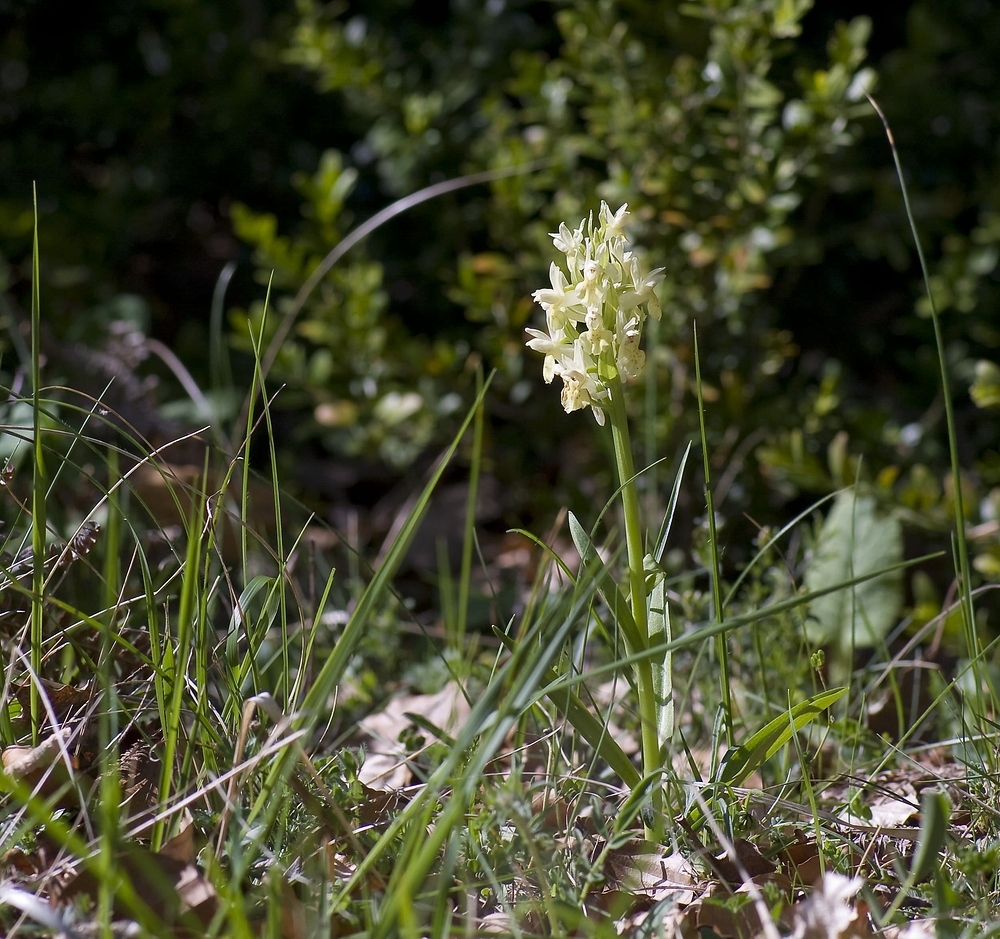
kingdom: Plantae
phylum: Tracheophyta
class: Liliopsida
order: Asparagales
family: Orchidaceae
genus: Dactylorhiza
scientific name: Dactylorhiza sambucina
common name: Elder-flowered orchid
